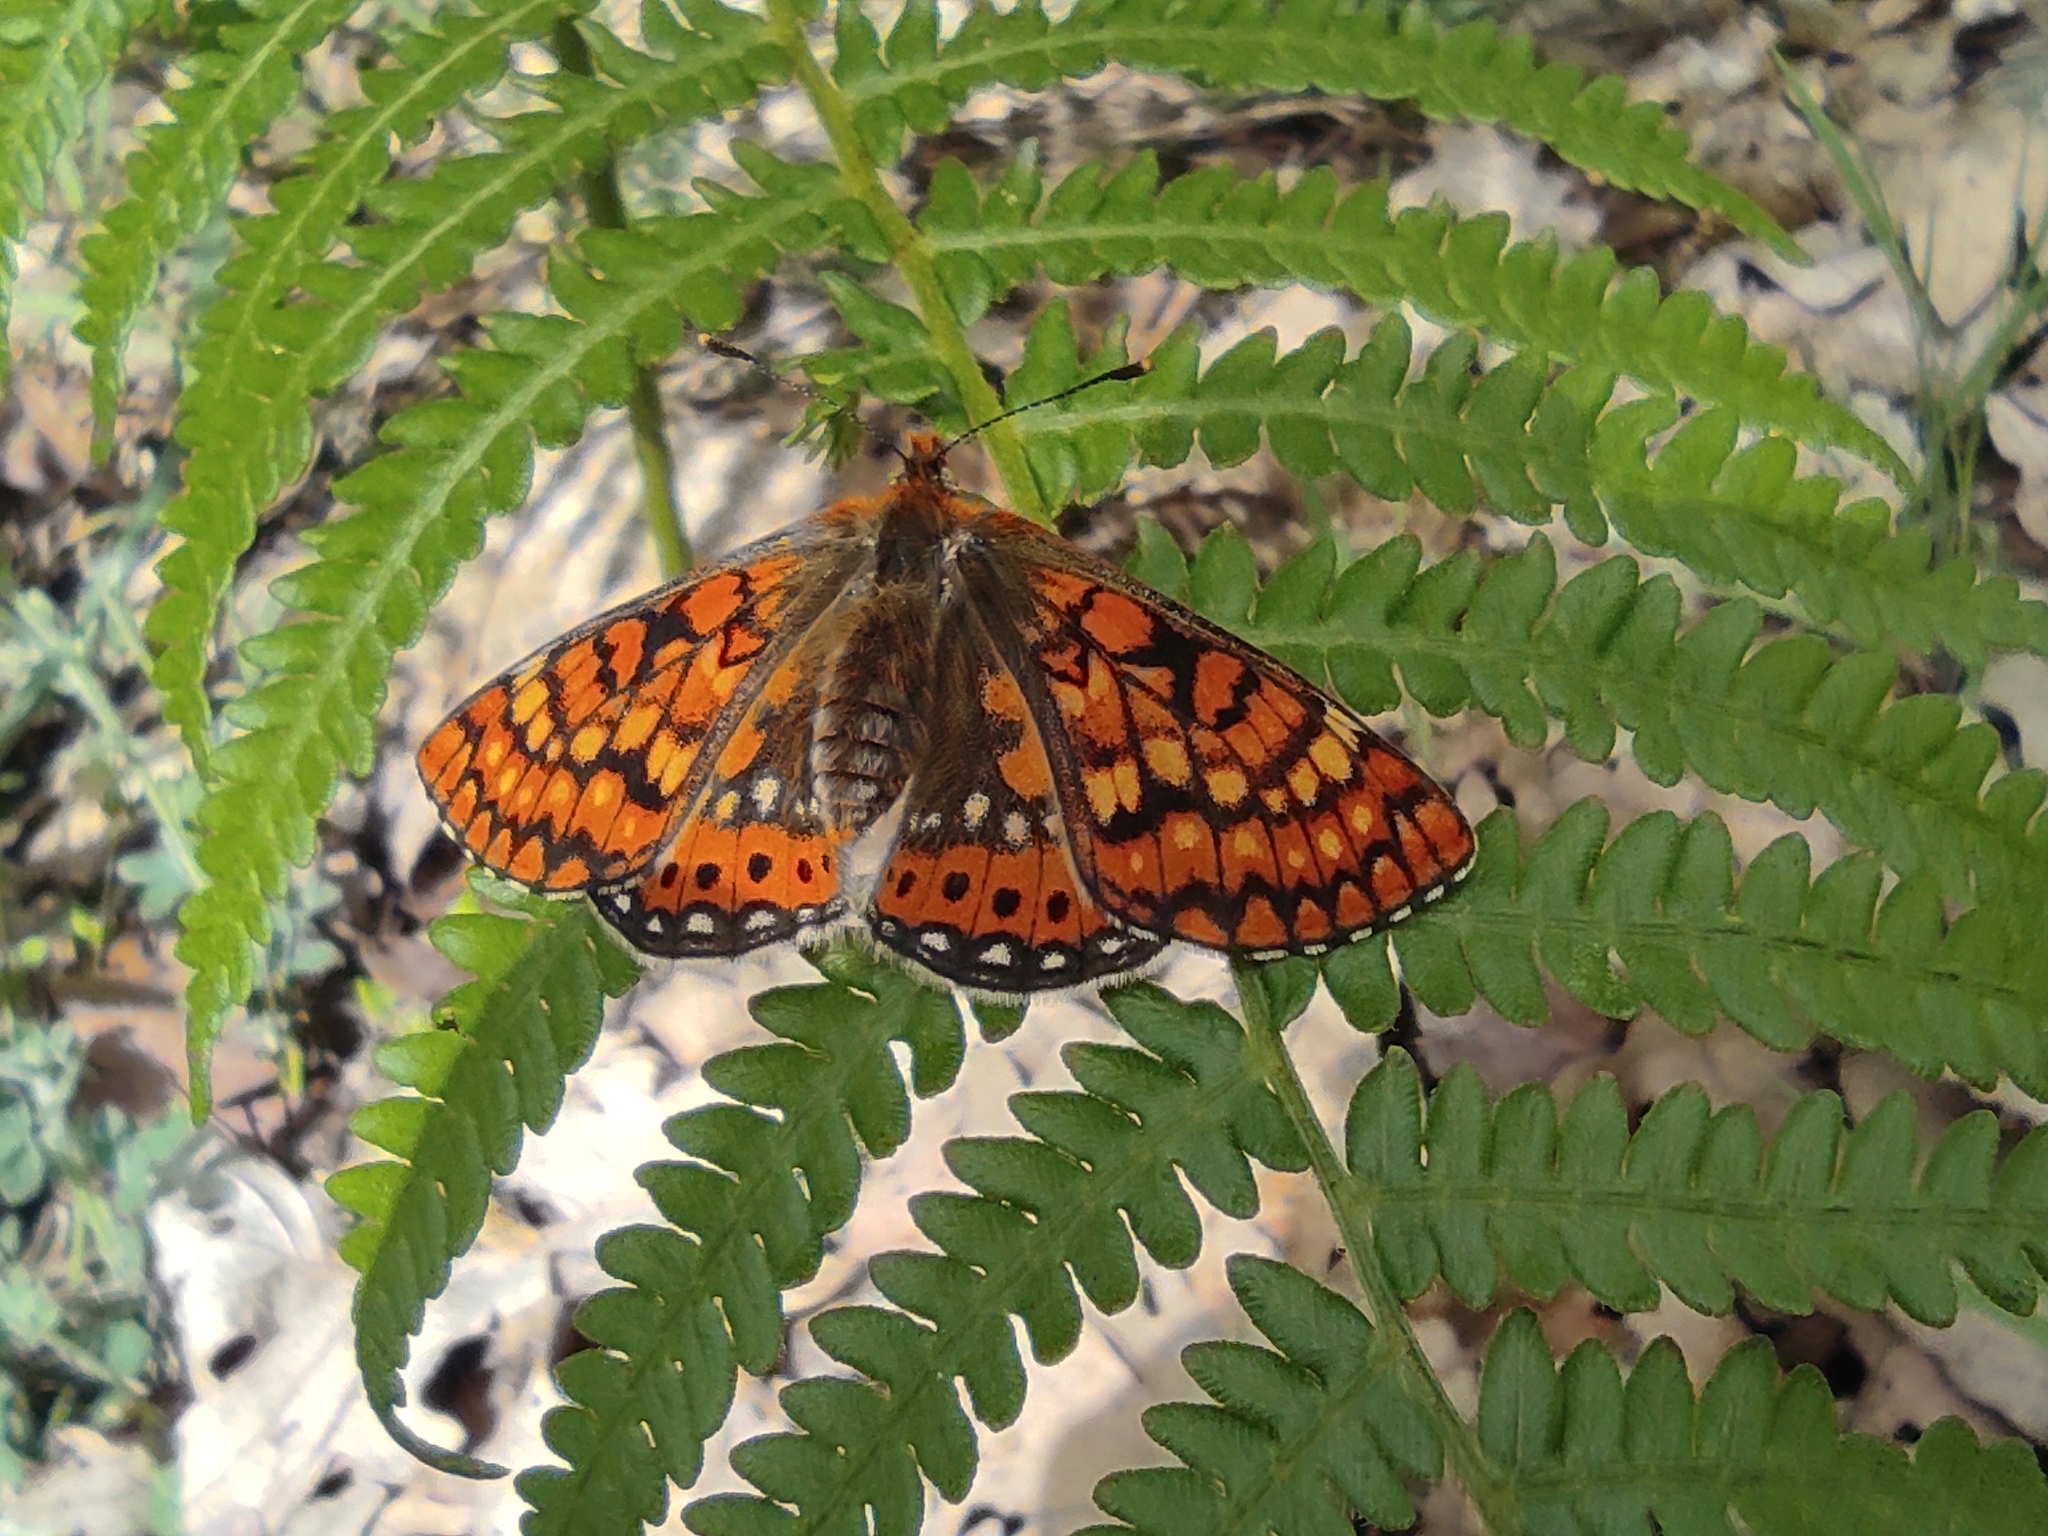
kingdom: Animalia
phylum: Arthropoda
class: Insecta
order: Lepidoptera
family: Nymphalidae
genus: Euphydryas
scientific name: Euphydryas aurinia
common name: Marsh fritillary
